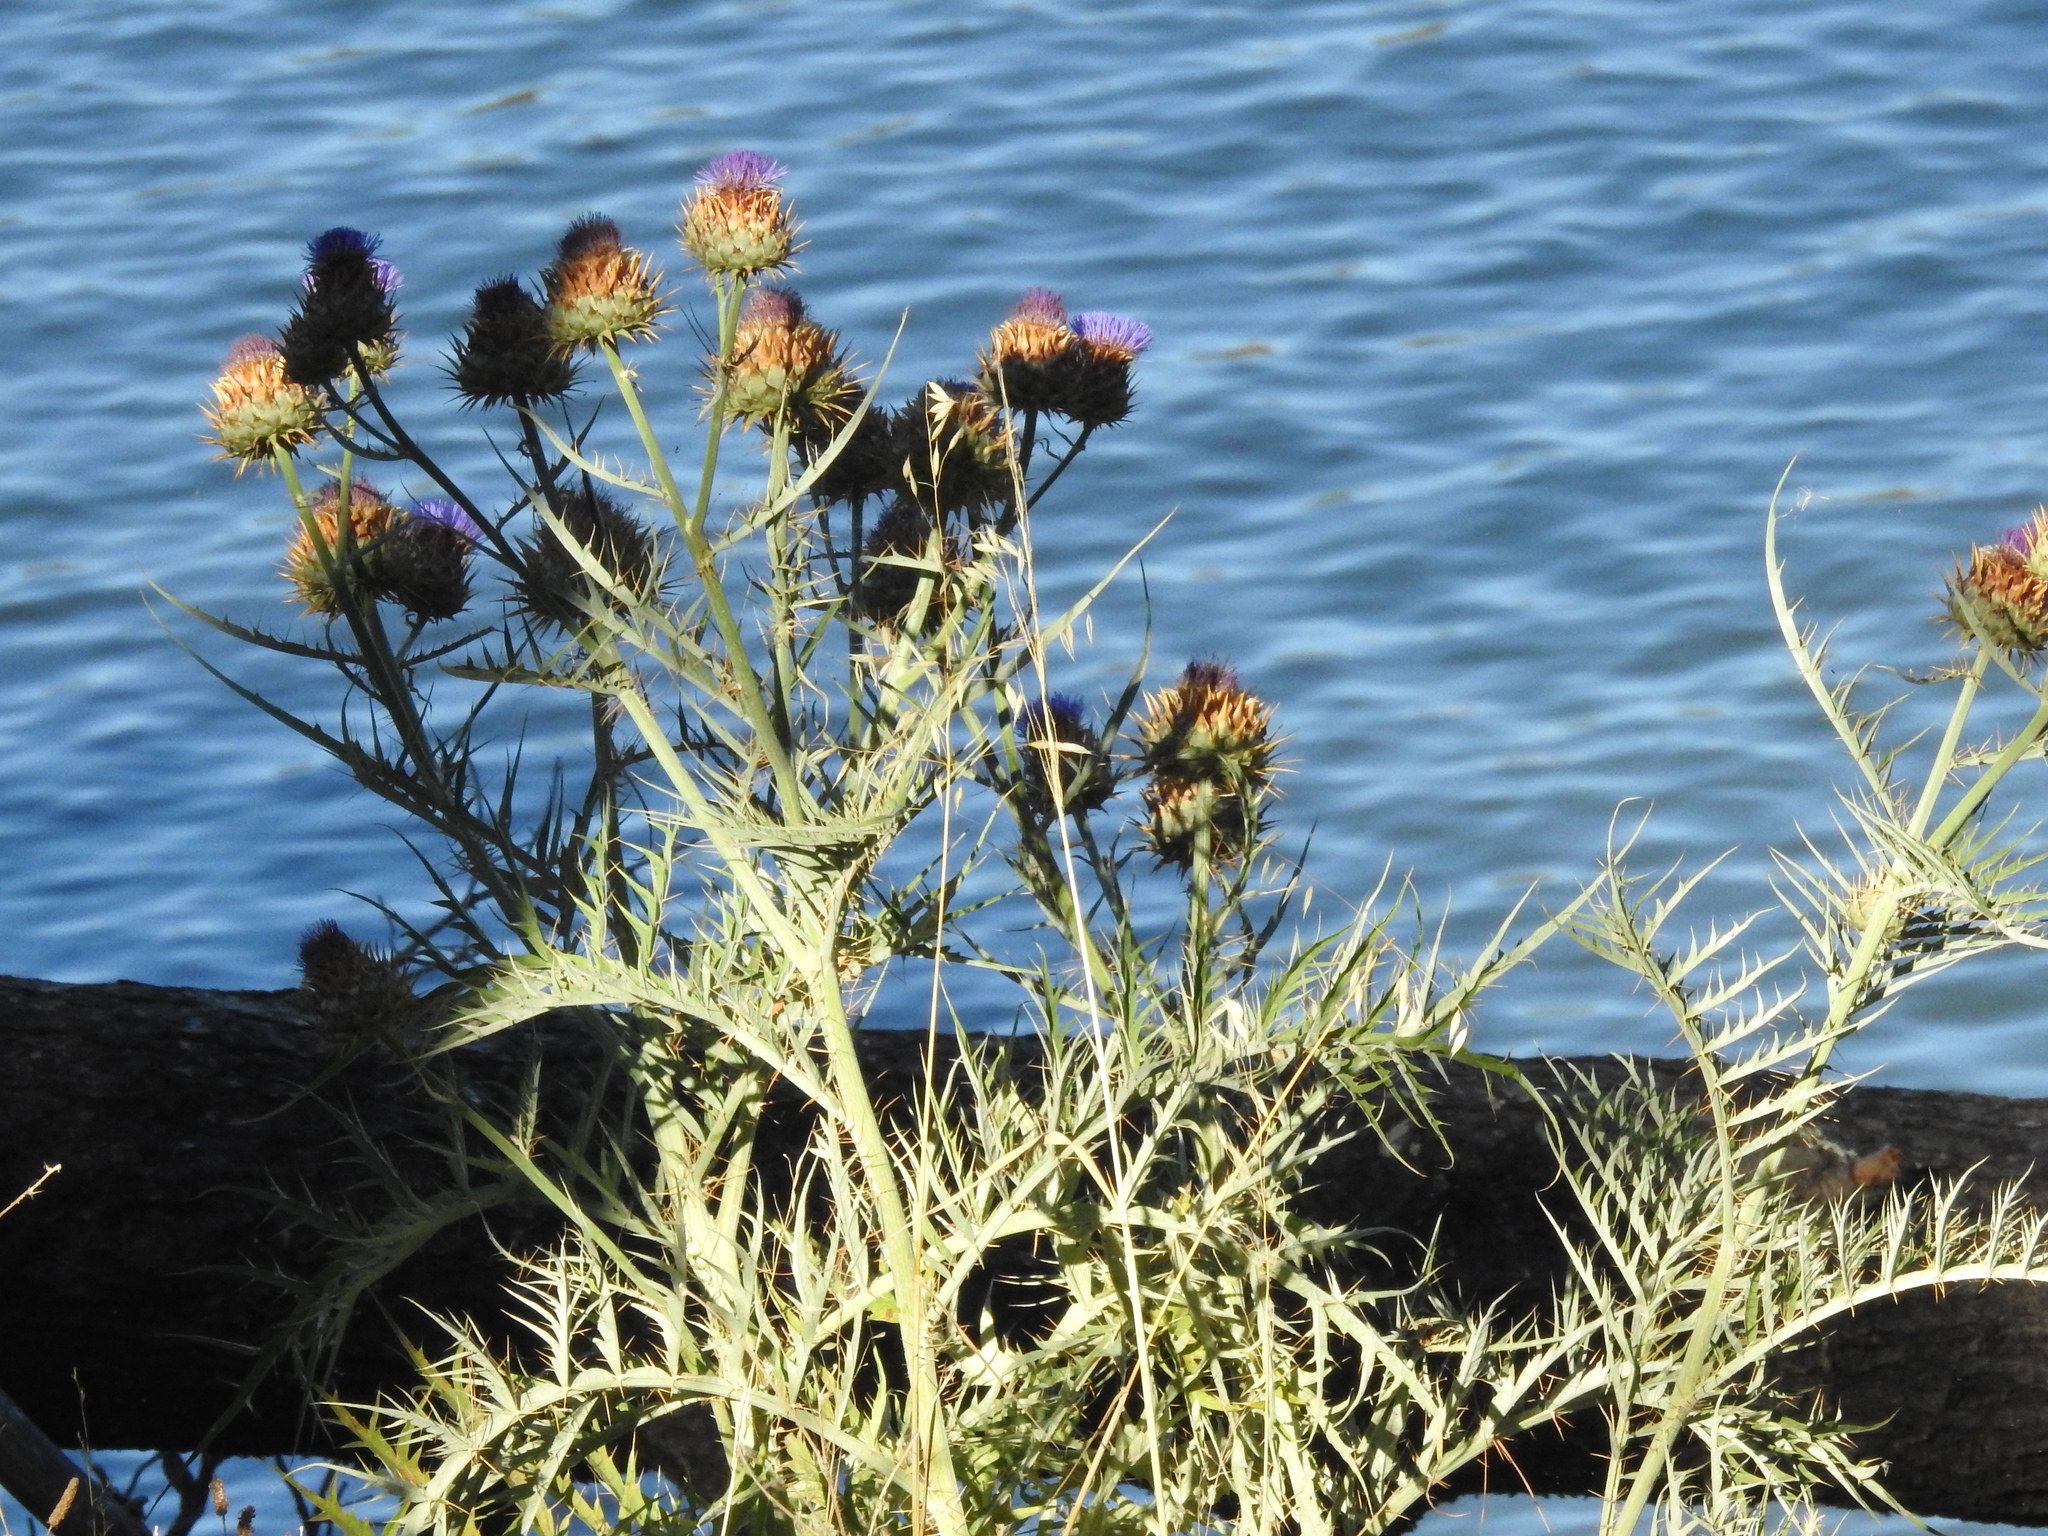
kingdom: Plantae
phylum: Tracheophyta
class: Magnoliopsida
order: Asterales
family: Asteraceae
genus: Cynara
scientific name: Cynara cardunculus
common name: Globe artichoke
